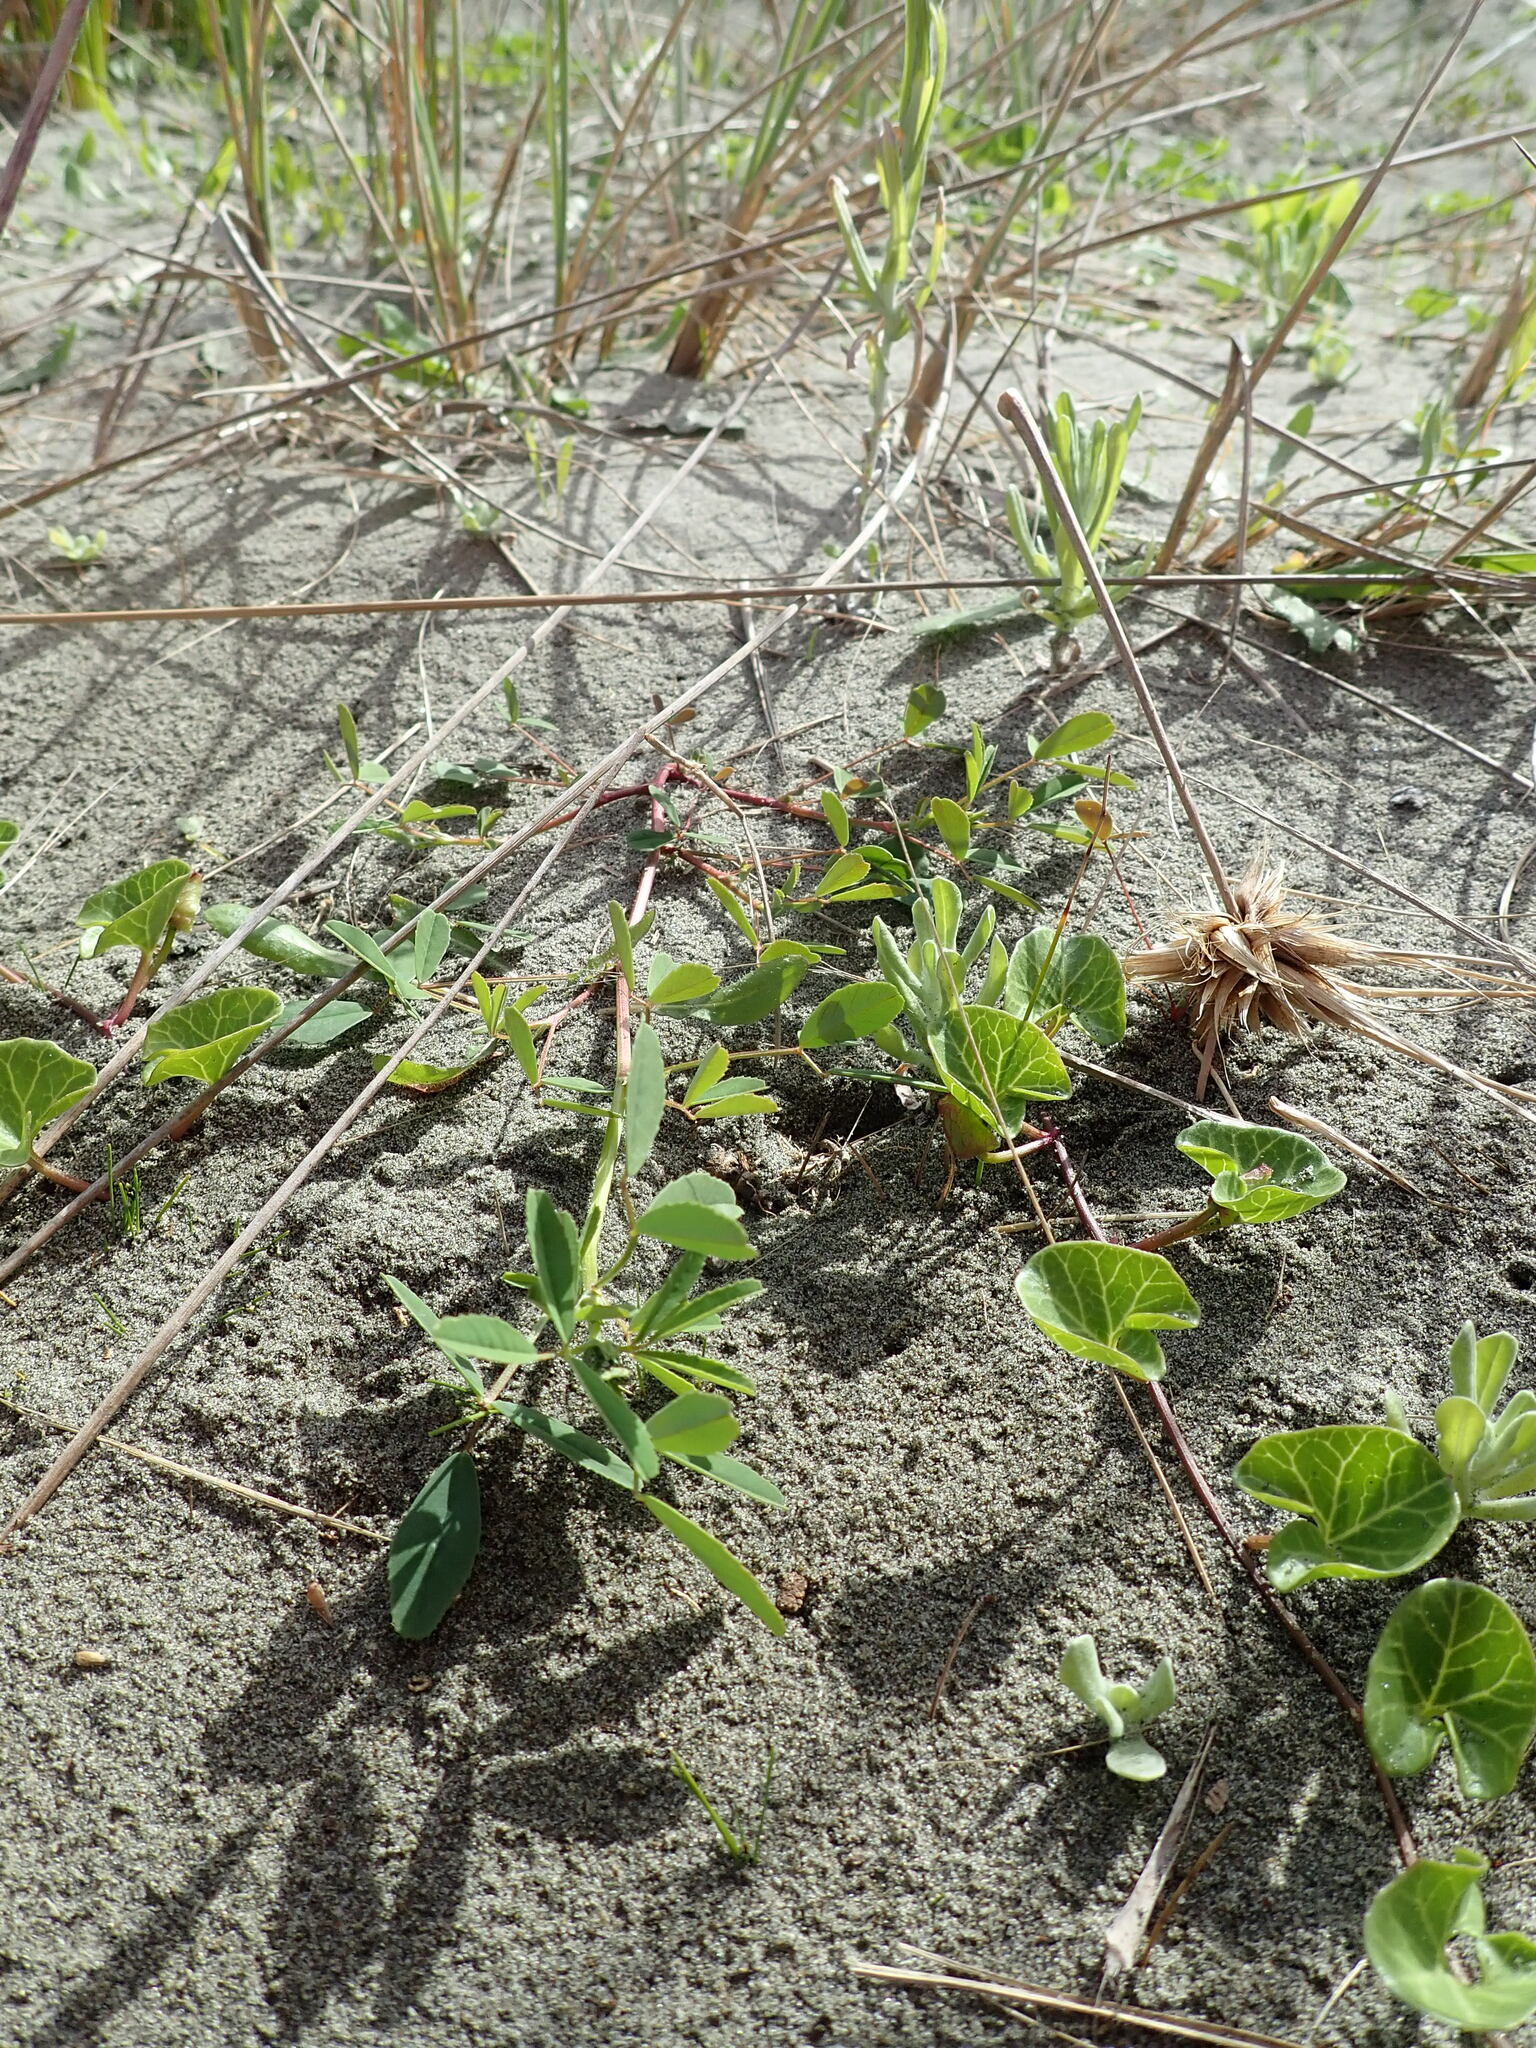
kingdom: Plantae
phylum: Tracheophyta
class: Magnoliopsida
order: Fabales
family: Fabaceae
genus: Melilotus
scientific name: Melilotus indicus
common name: Small melilot
